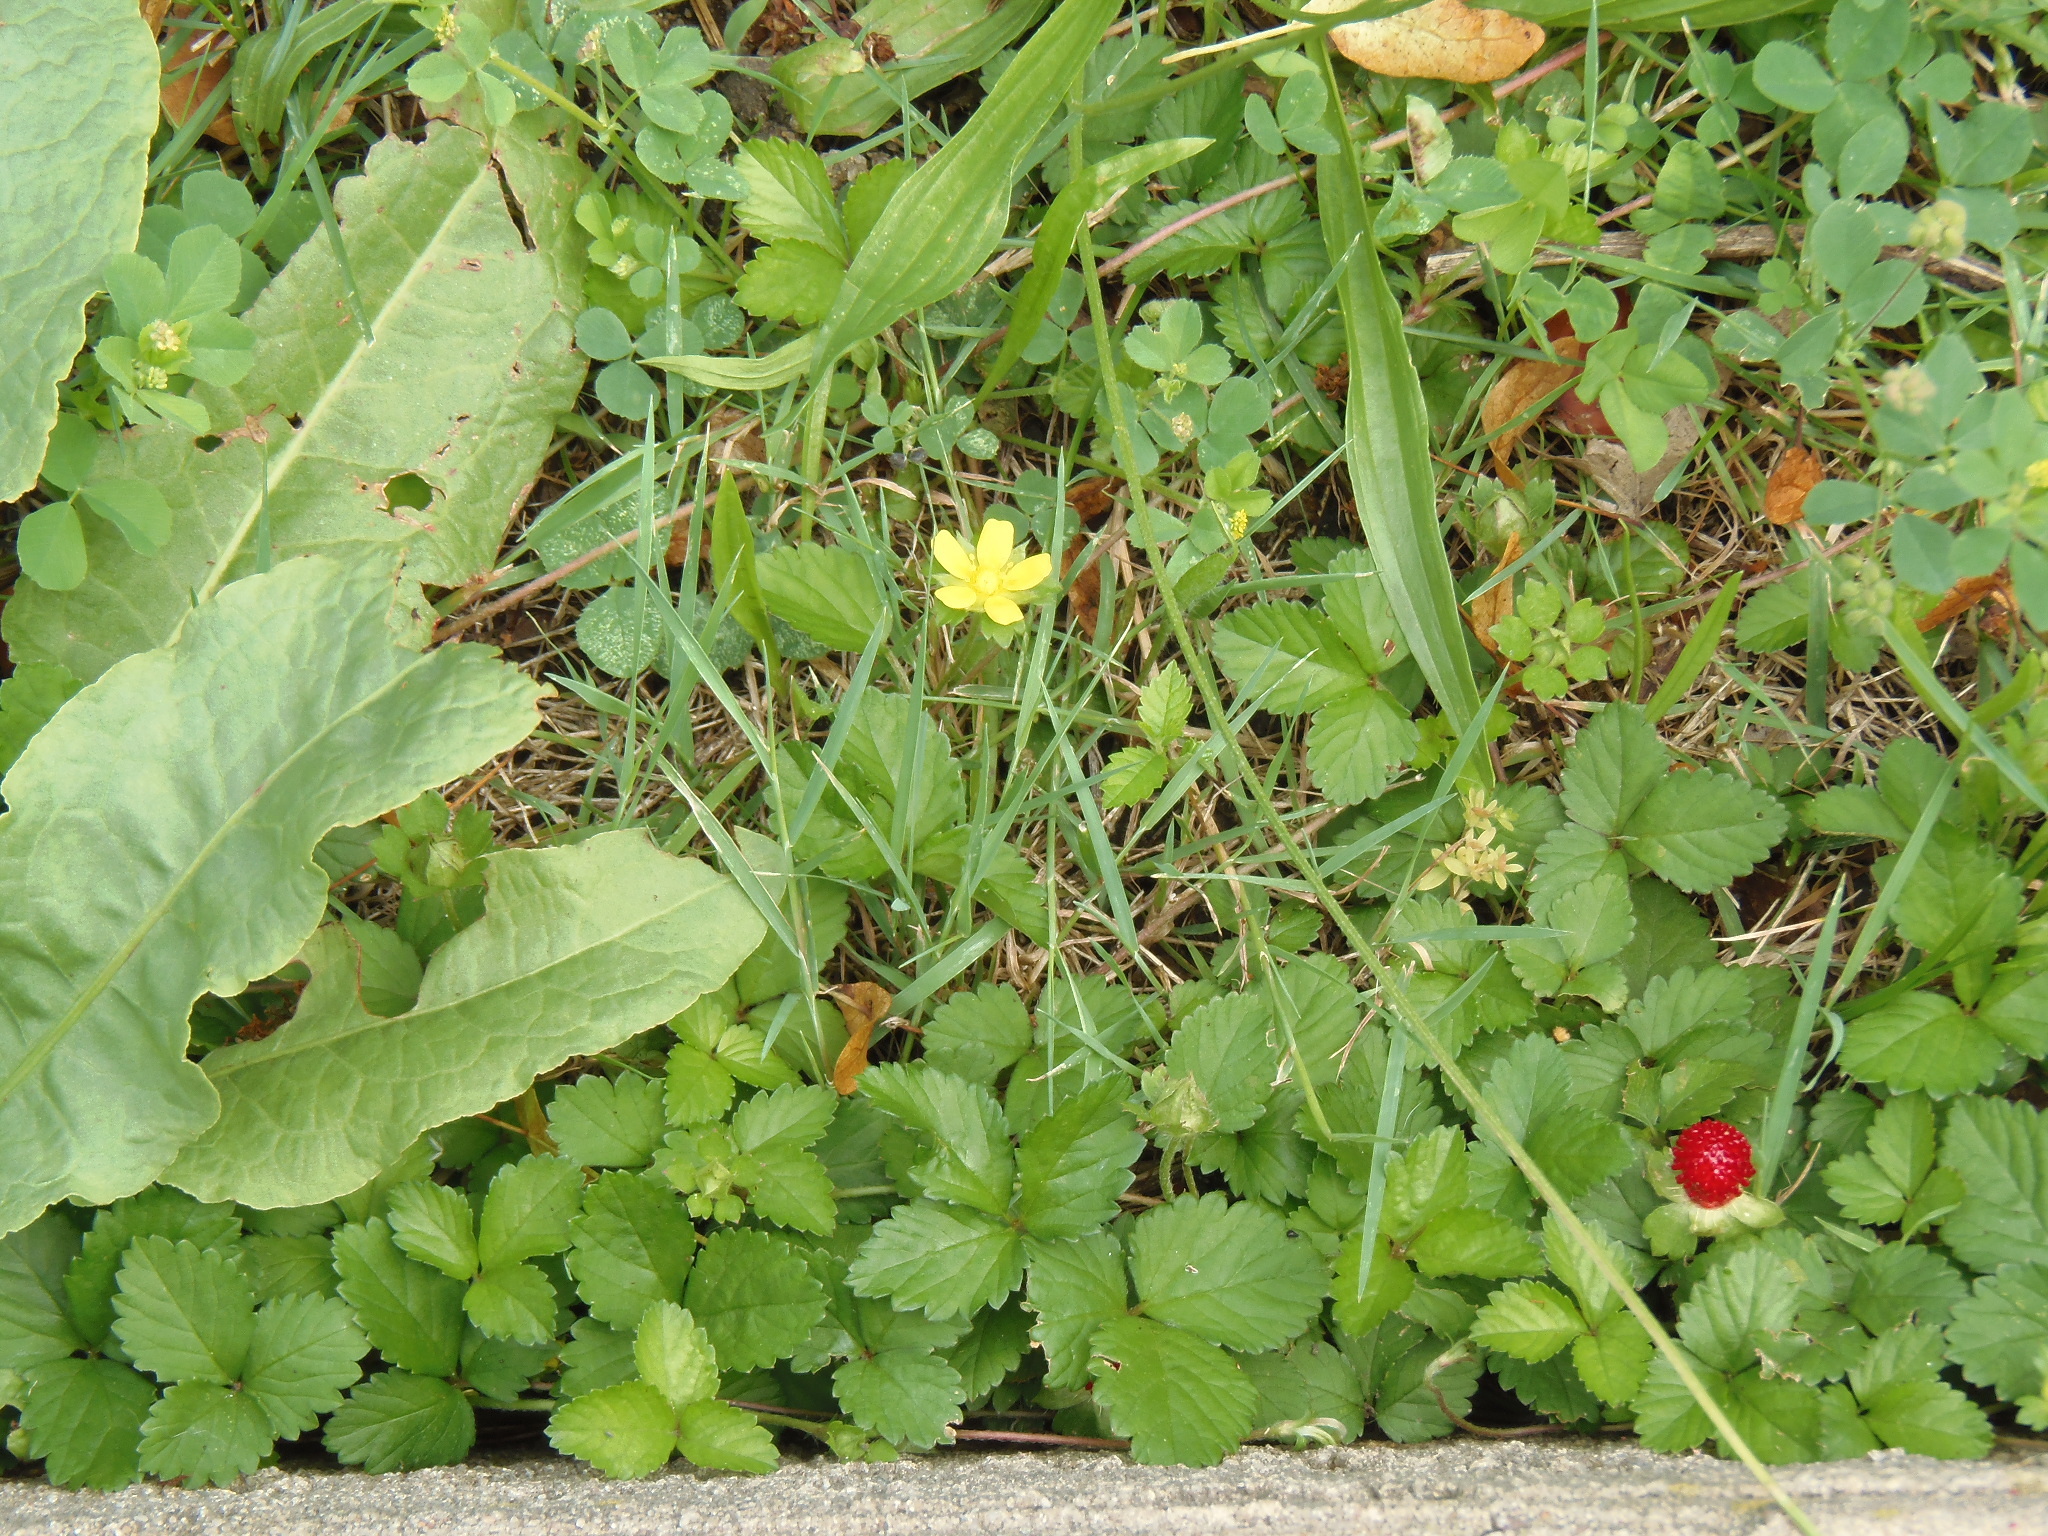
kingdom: Plantae
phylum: Tracheophyta
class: Magnoliopsida
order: Rosales
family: Rosaceae
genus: Potentilla
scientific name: Potentilla indica
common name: Yellow-flowered strawberry
